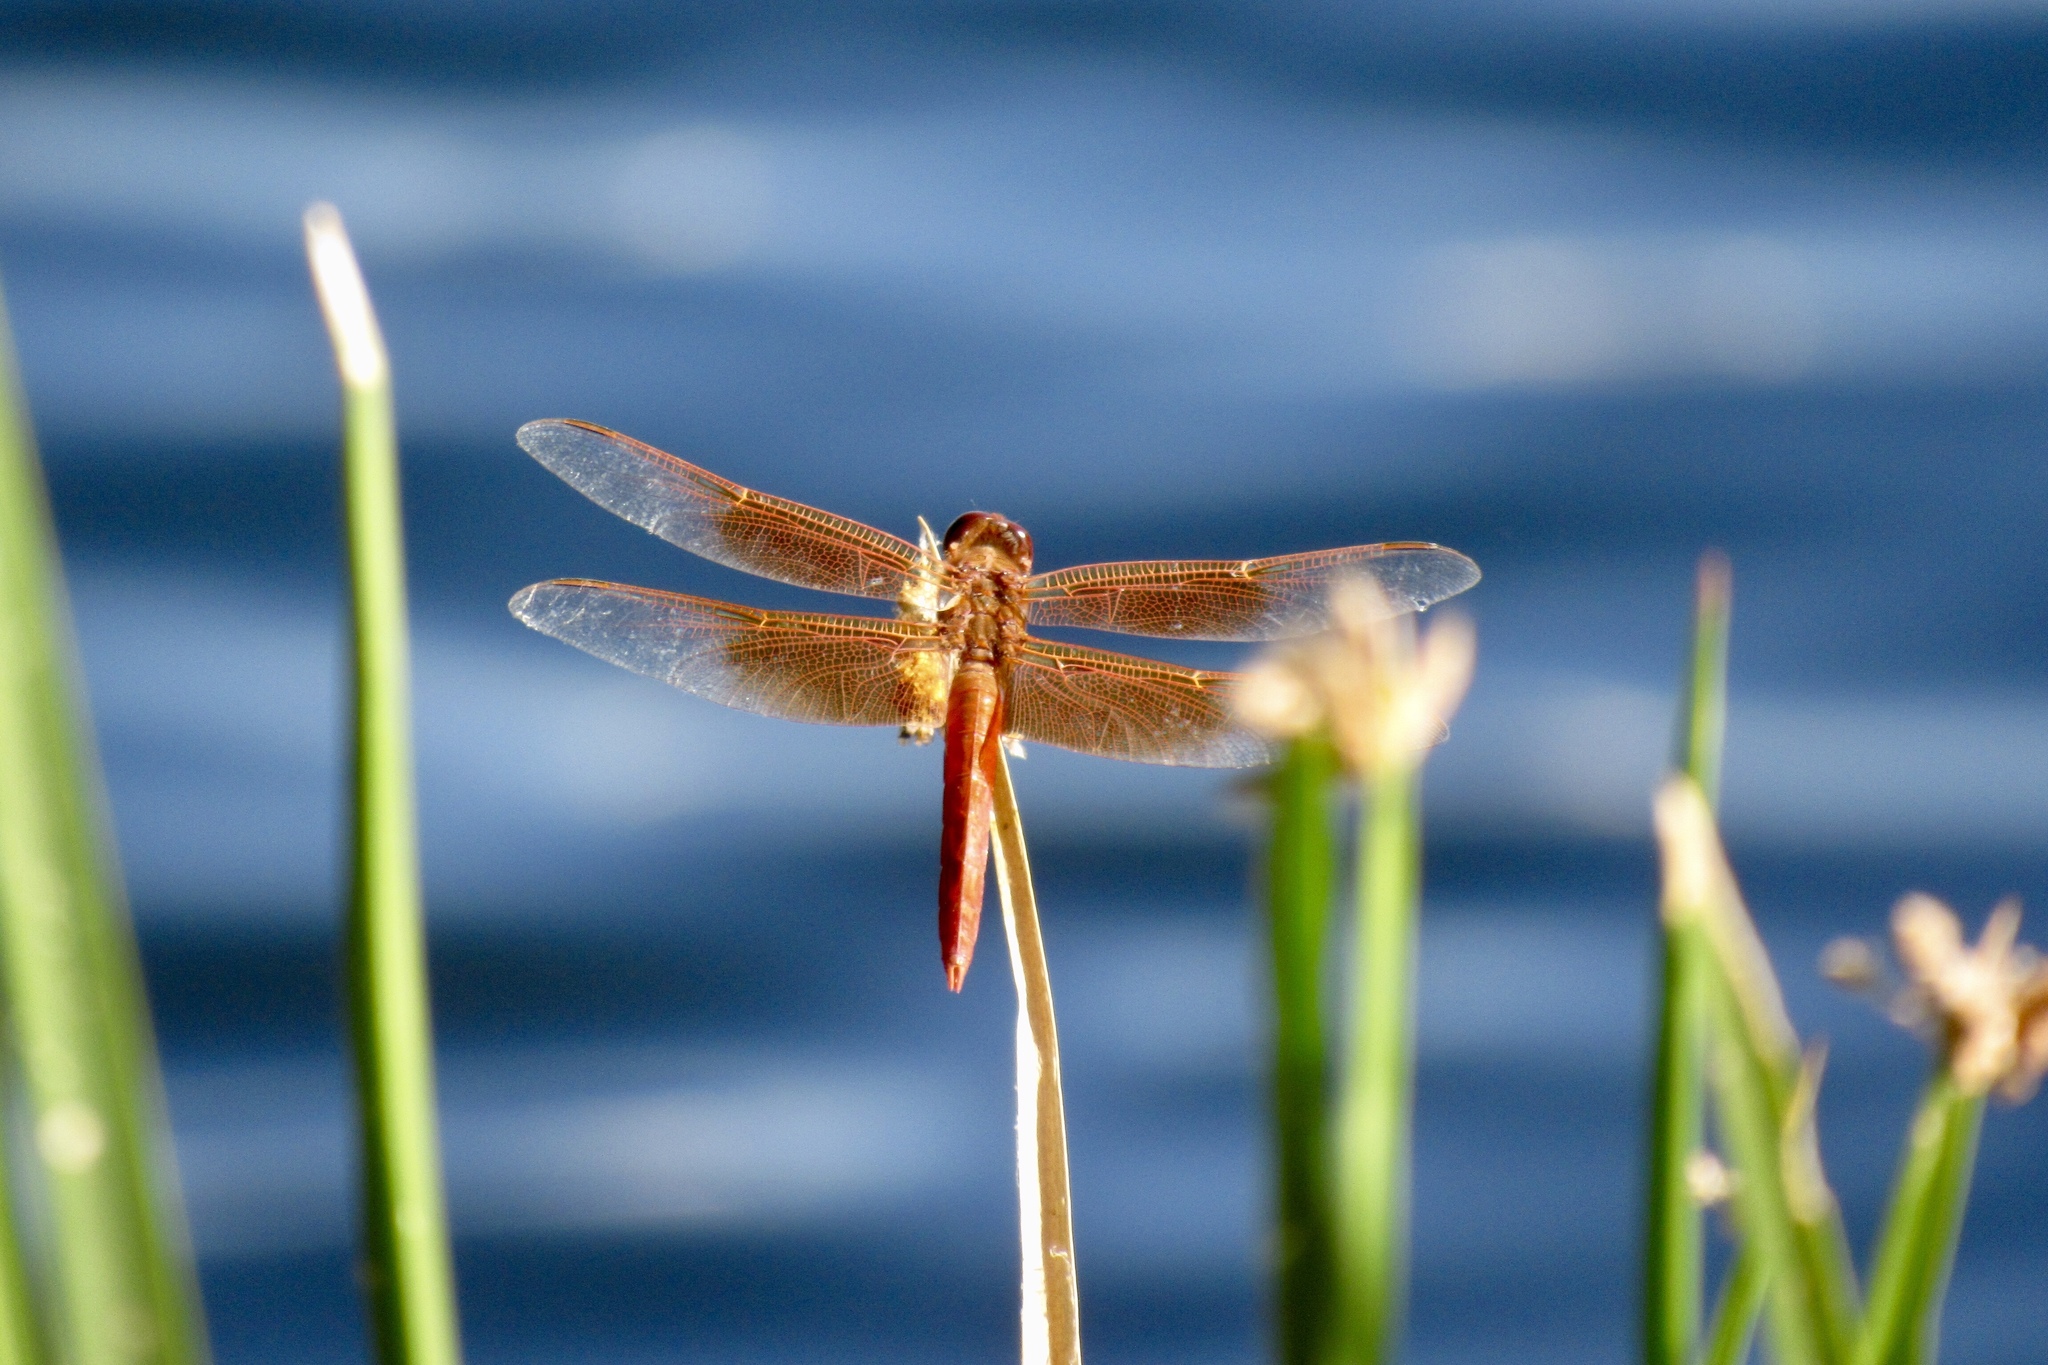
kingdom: Animalia
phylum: Arthropoda
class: Insecta
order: Odonata
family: Libellulidae
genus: Libellula
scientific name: Libellula saturata
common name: Flame skimmer
